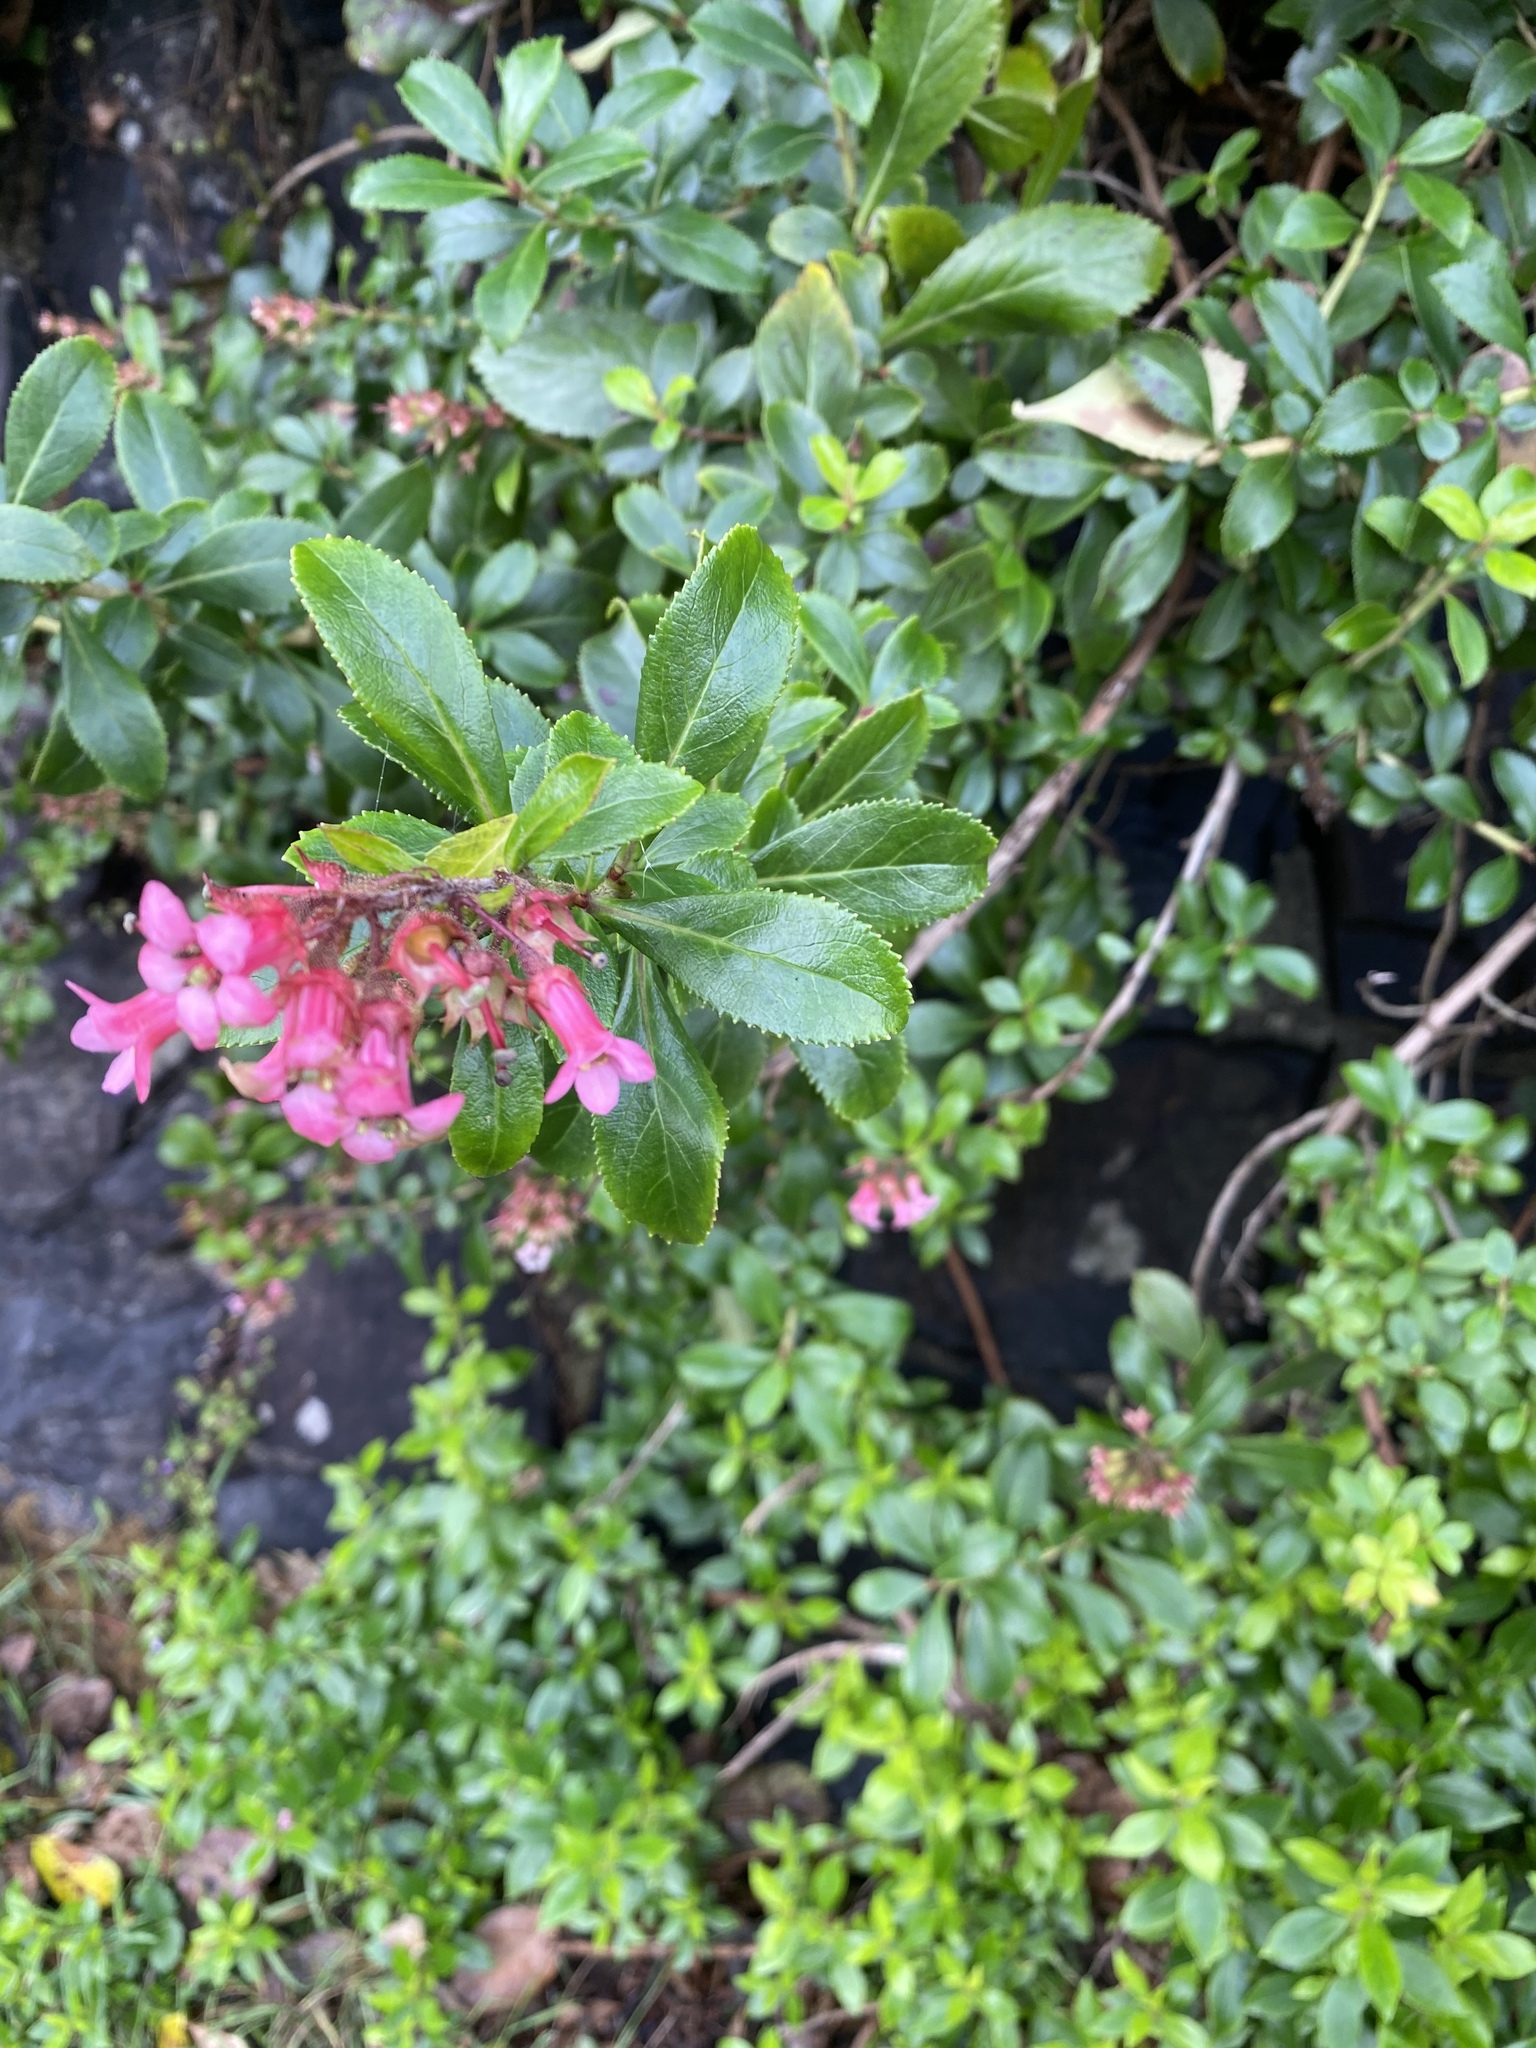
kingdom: Plantae
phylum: Tracheophyta
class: Magnoliopsida
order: Escalloniales
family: Escalloniaceae
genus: Escallonia
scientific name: Escallonia rubra
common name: Redclaws
